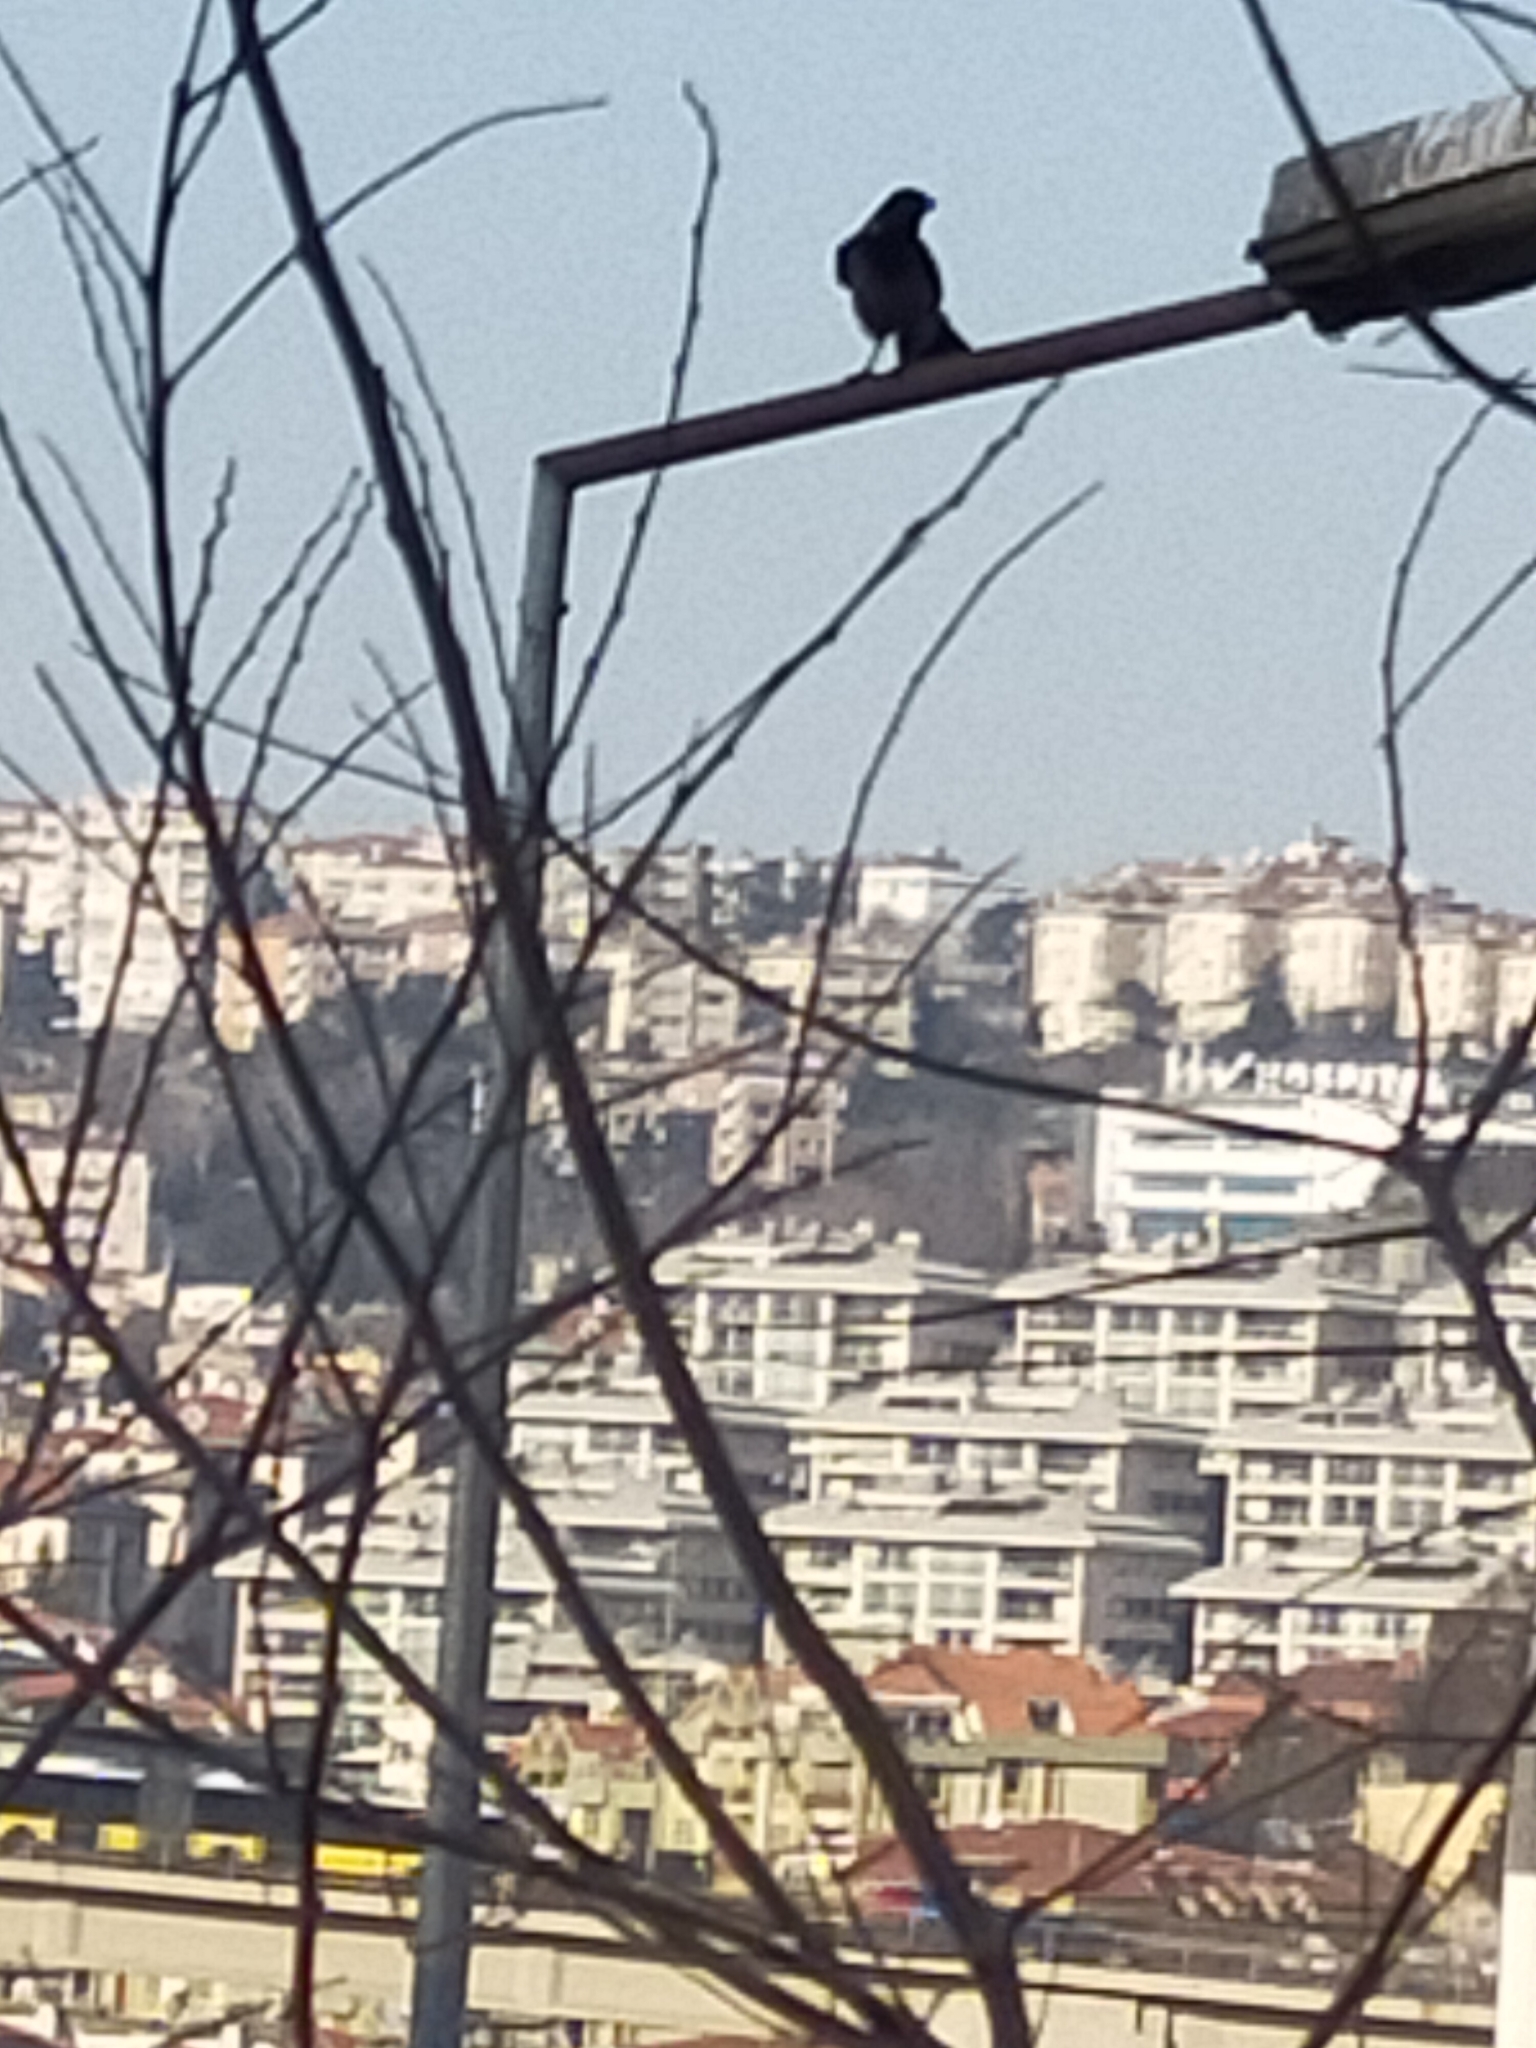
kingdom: Animalia
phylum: Chordata
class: Aves
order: Passeriformes
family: Corvidae
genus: Corvus
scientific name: Corvus cornix
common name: Hooded crow
